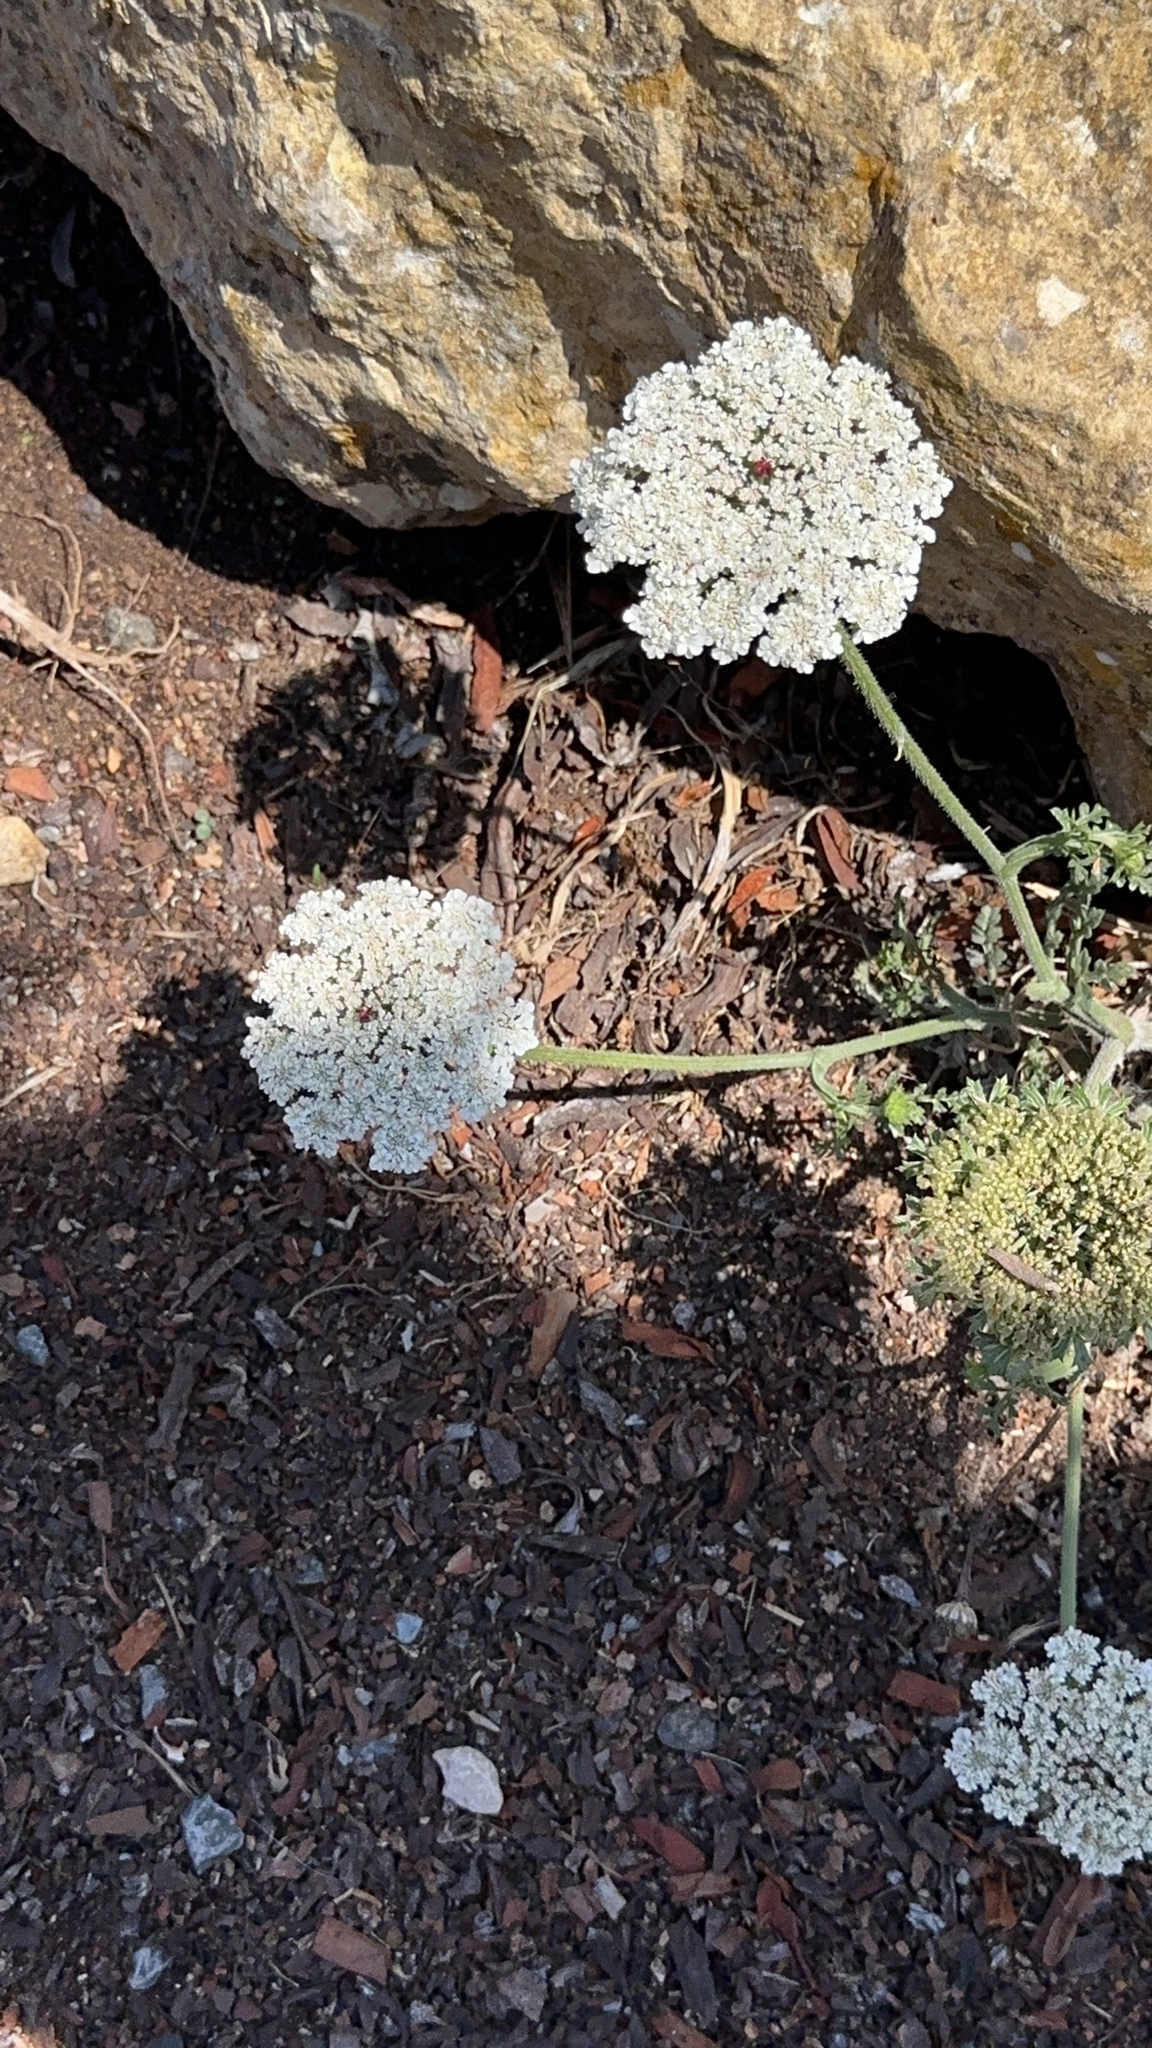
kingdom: Plantae
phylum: Tracheophyta
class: Magnoliopsida
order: Apiales
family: Apiaceae
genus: Daucus
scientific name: Daucus carota
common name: Wild carrot
